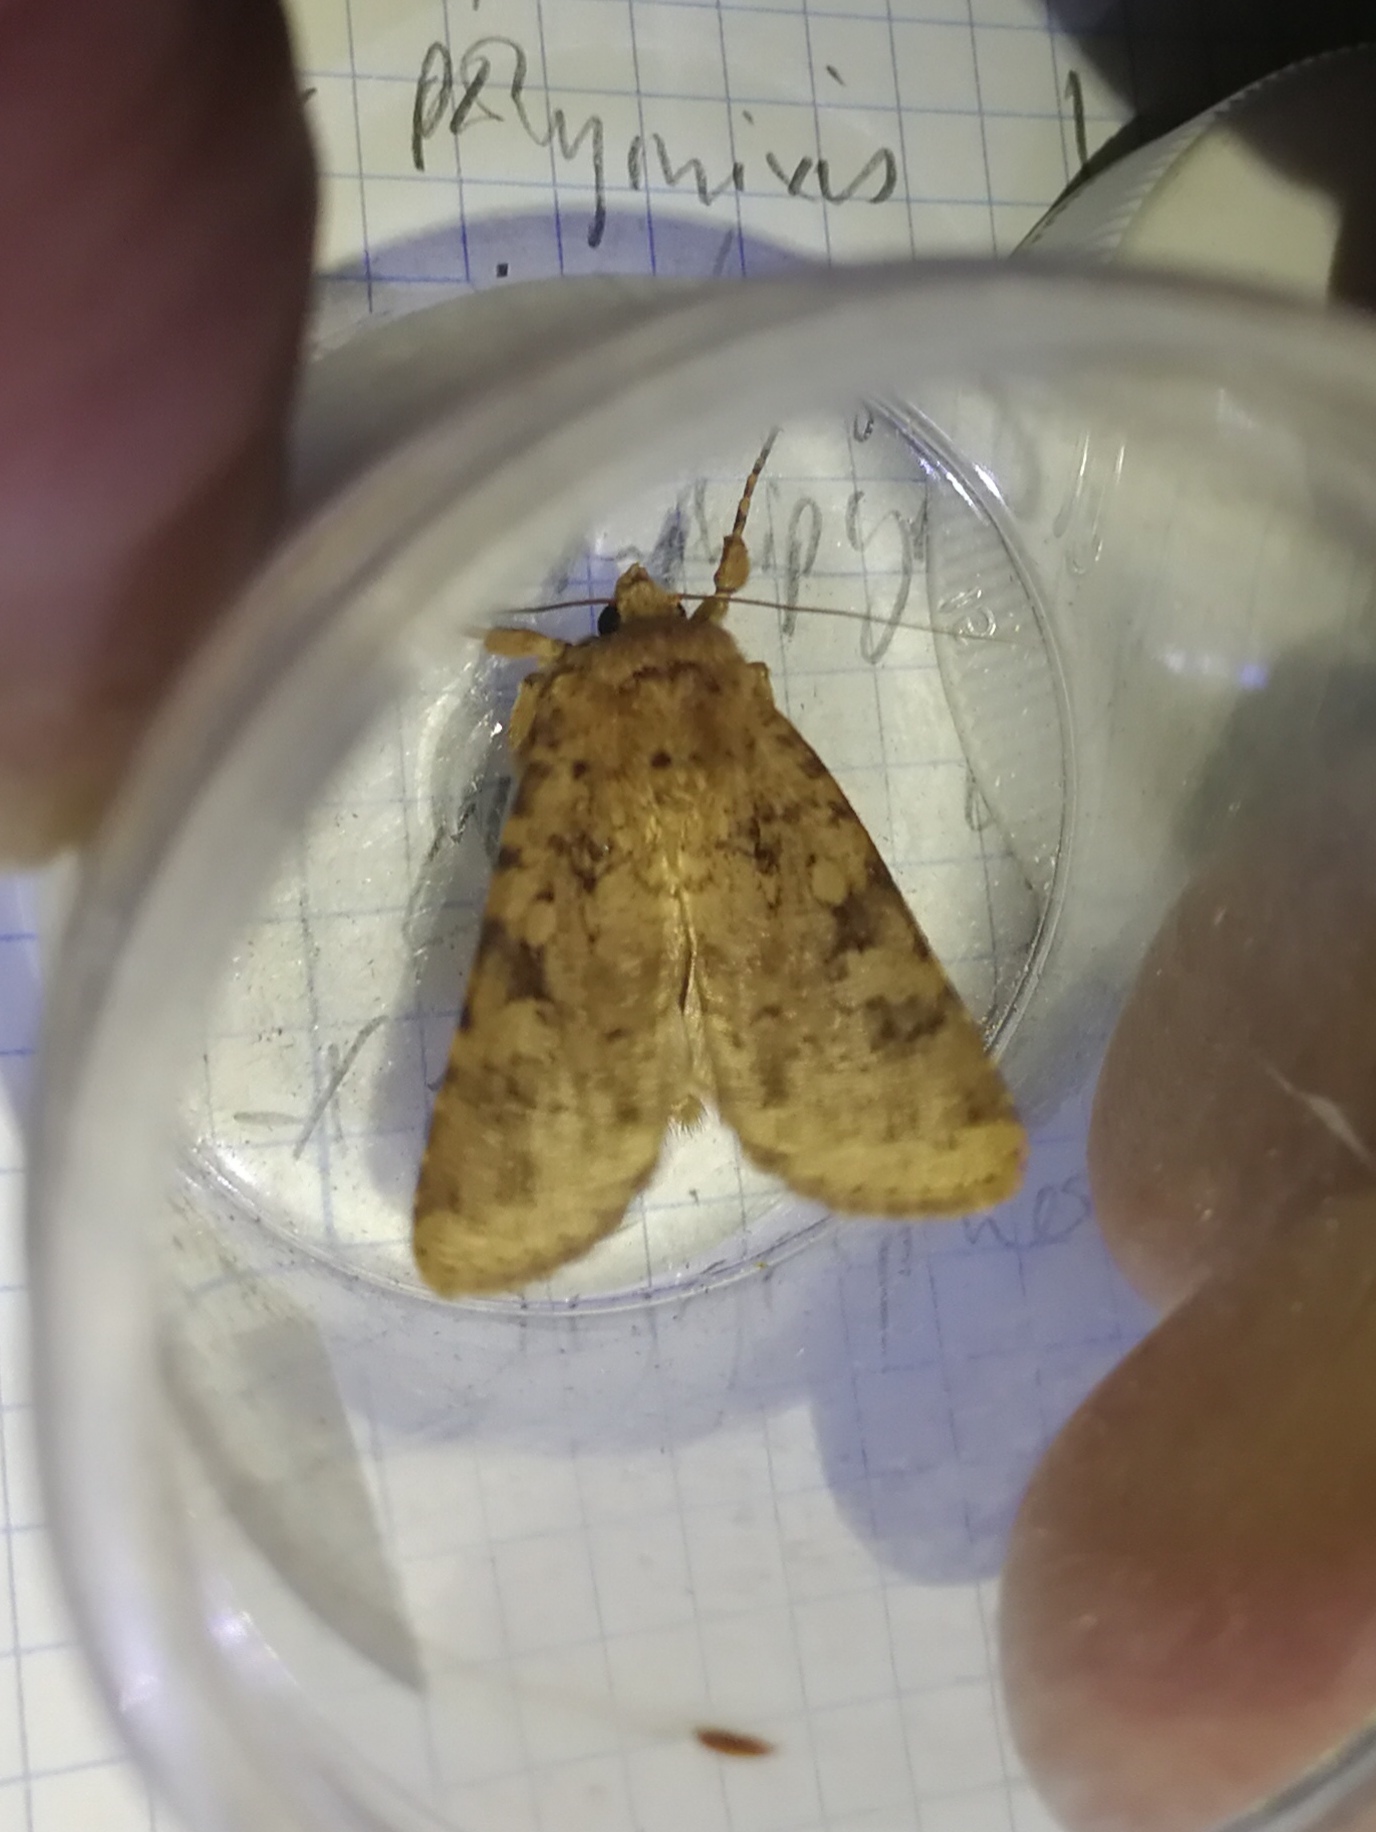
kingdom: Animalia
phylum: Arthropoda
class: Insecta
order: Lepidoptera
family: Noctuidae
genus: Amphipyra
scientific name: Amphipyra effusa
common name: Landguard ochre
